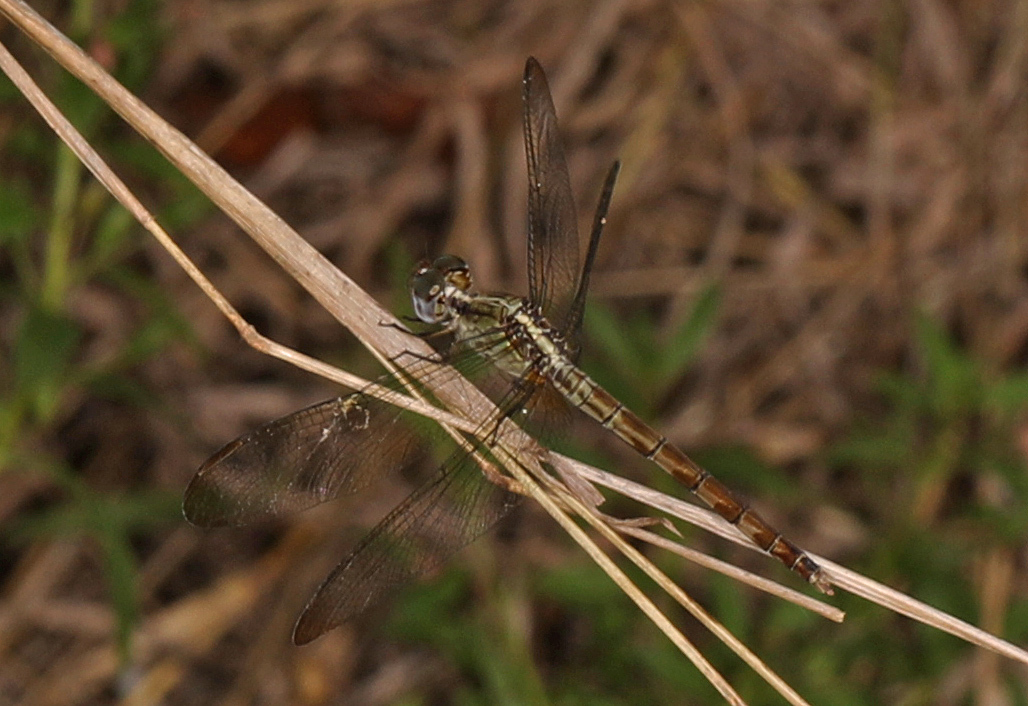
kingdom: Animalia
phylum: Arthropoda
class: Insecta
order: Odonata
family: Libellulidae
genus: Erythrodiplax
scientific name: Erythrodiplax umbrata
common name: Band-winged dragonlet
